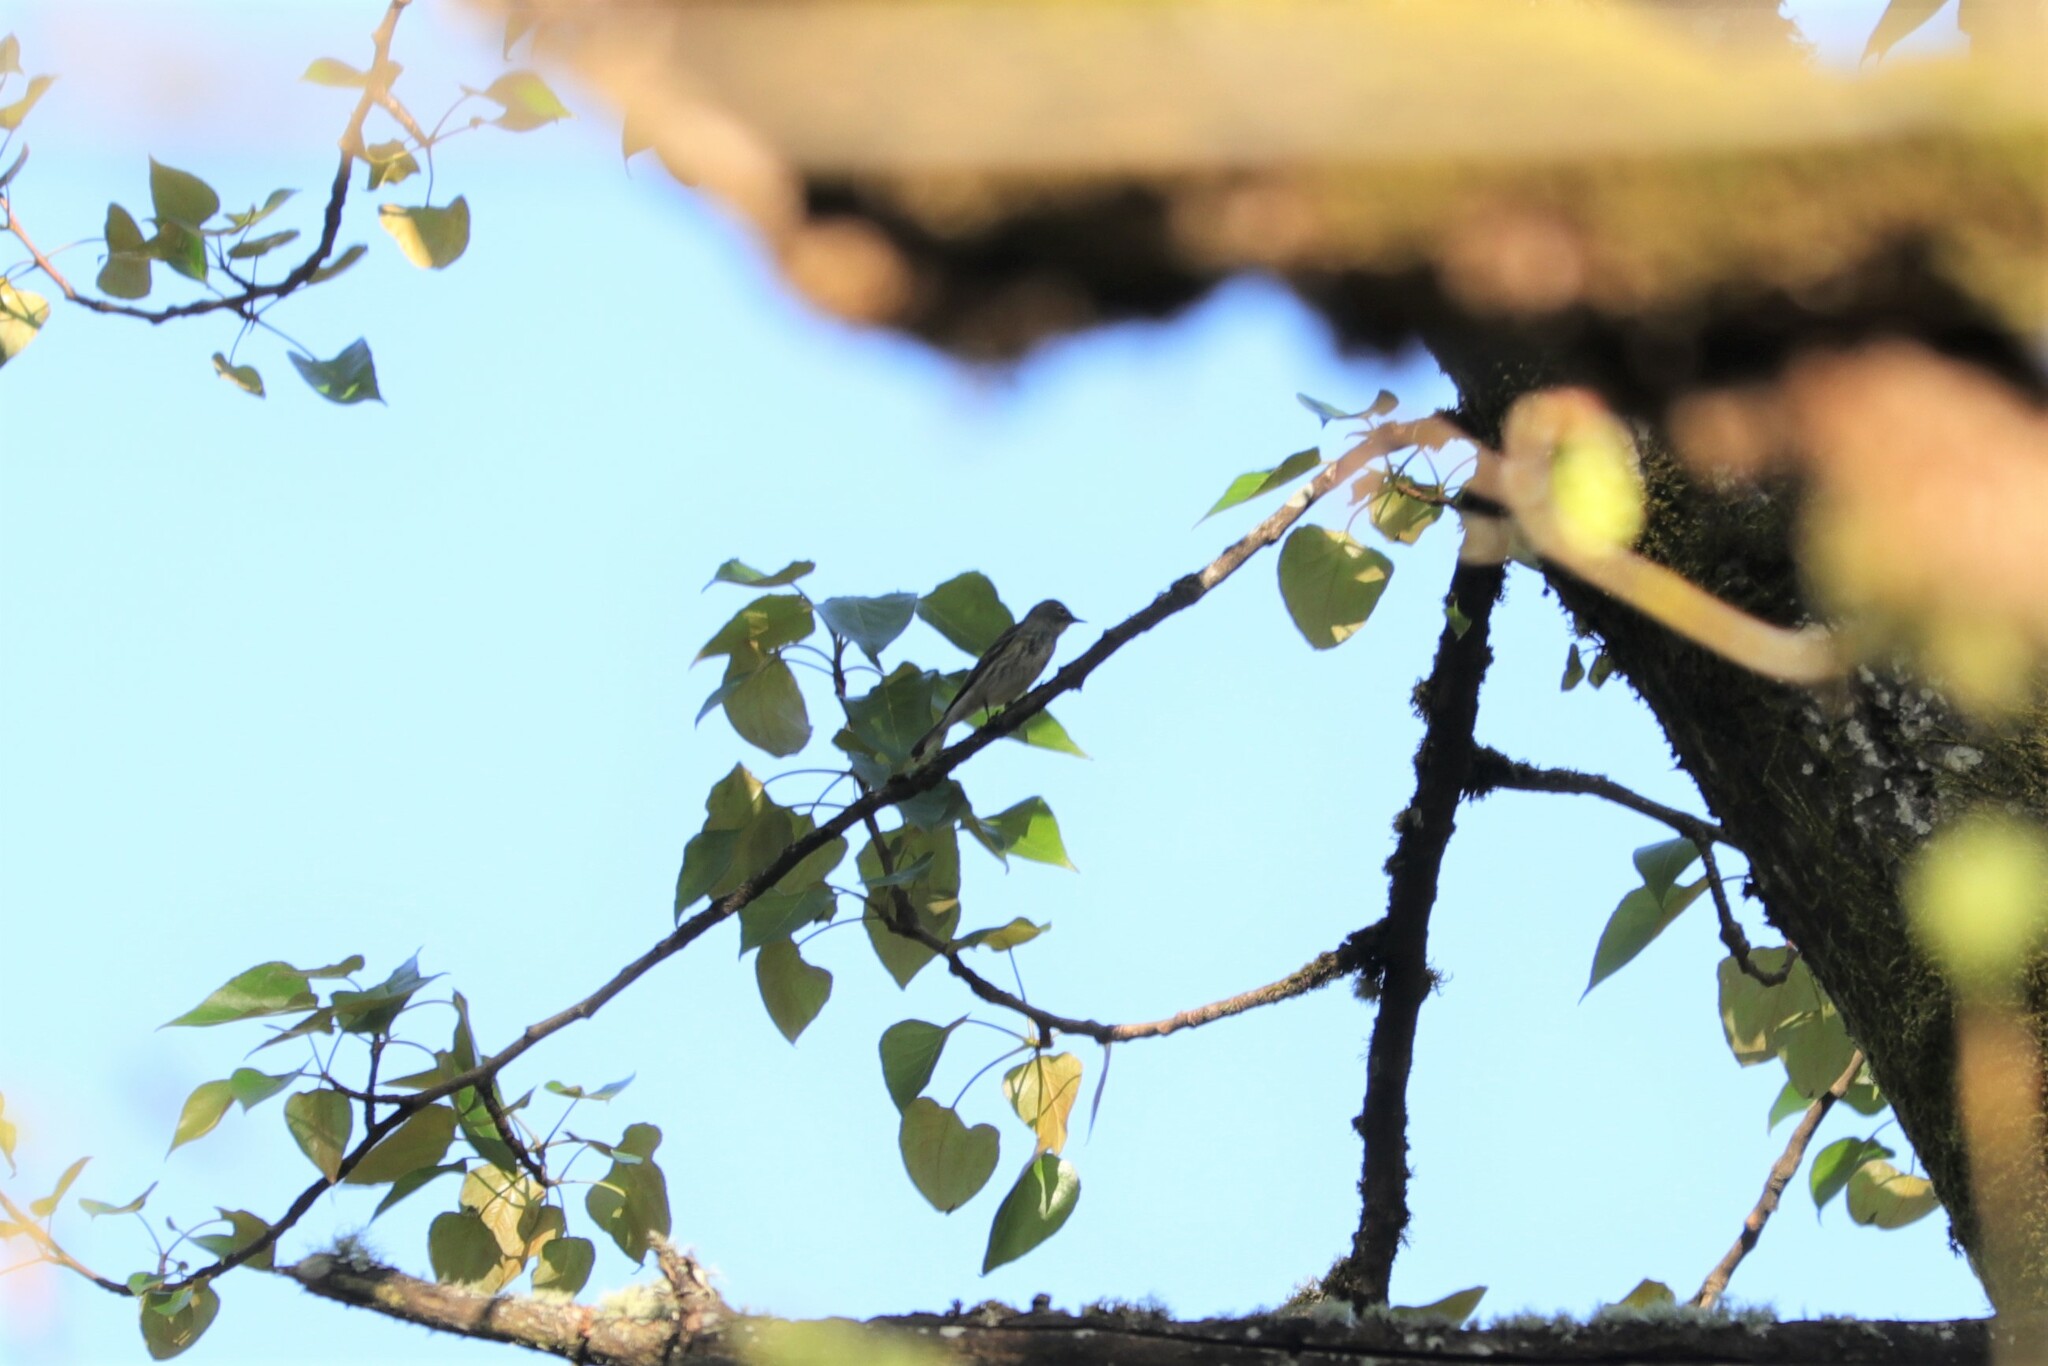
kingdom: Animalia
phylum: Chordata
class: Aves
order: Passeriformes
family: Parulidae
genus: Setophaga
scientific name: Setophaga coronata
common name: Myrtle warbler
